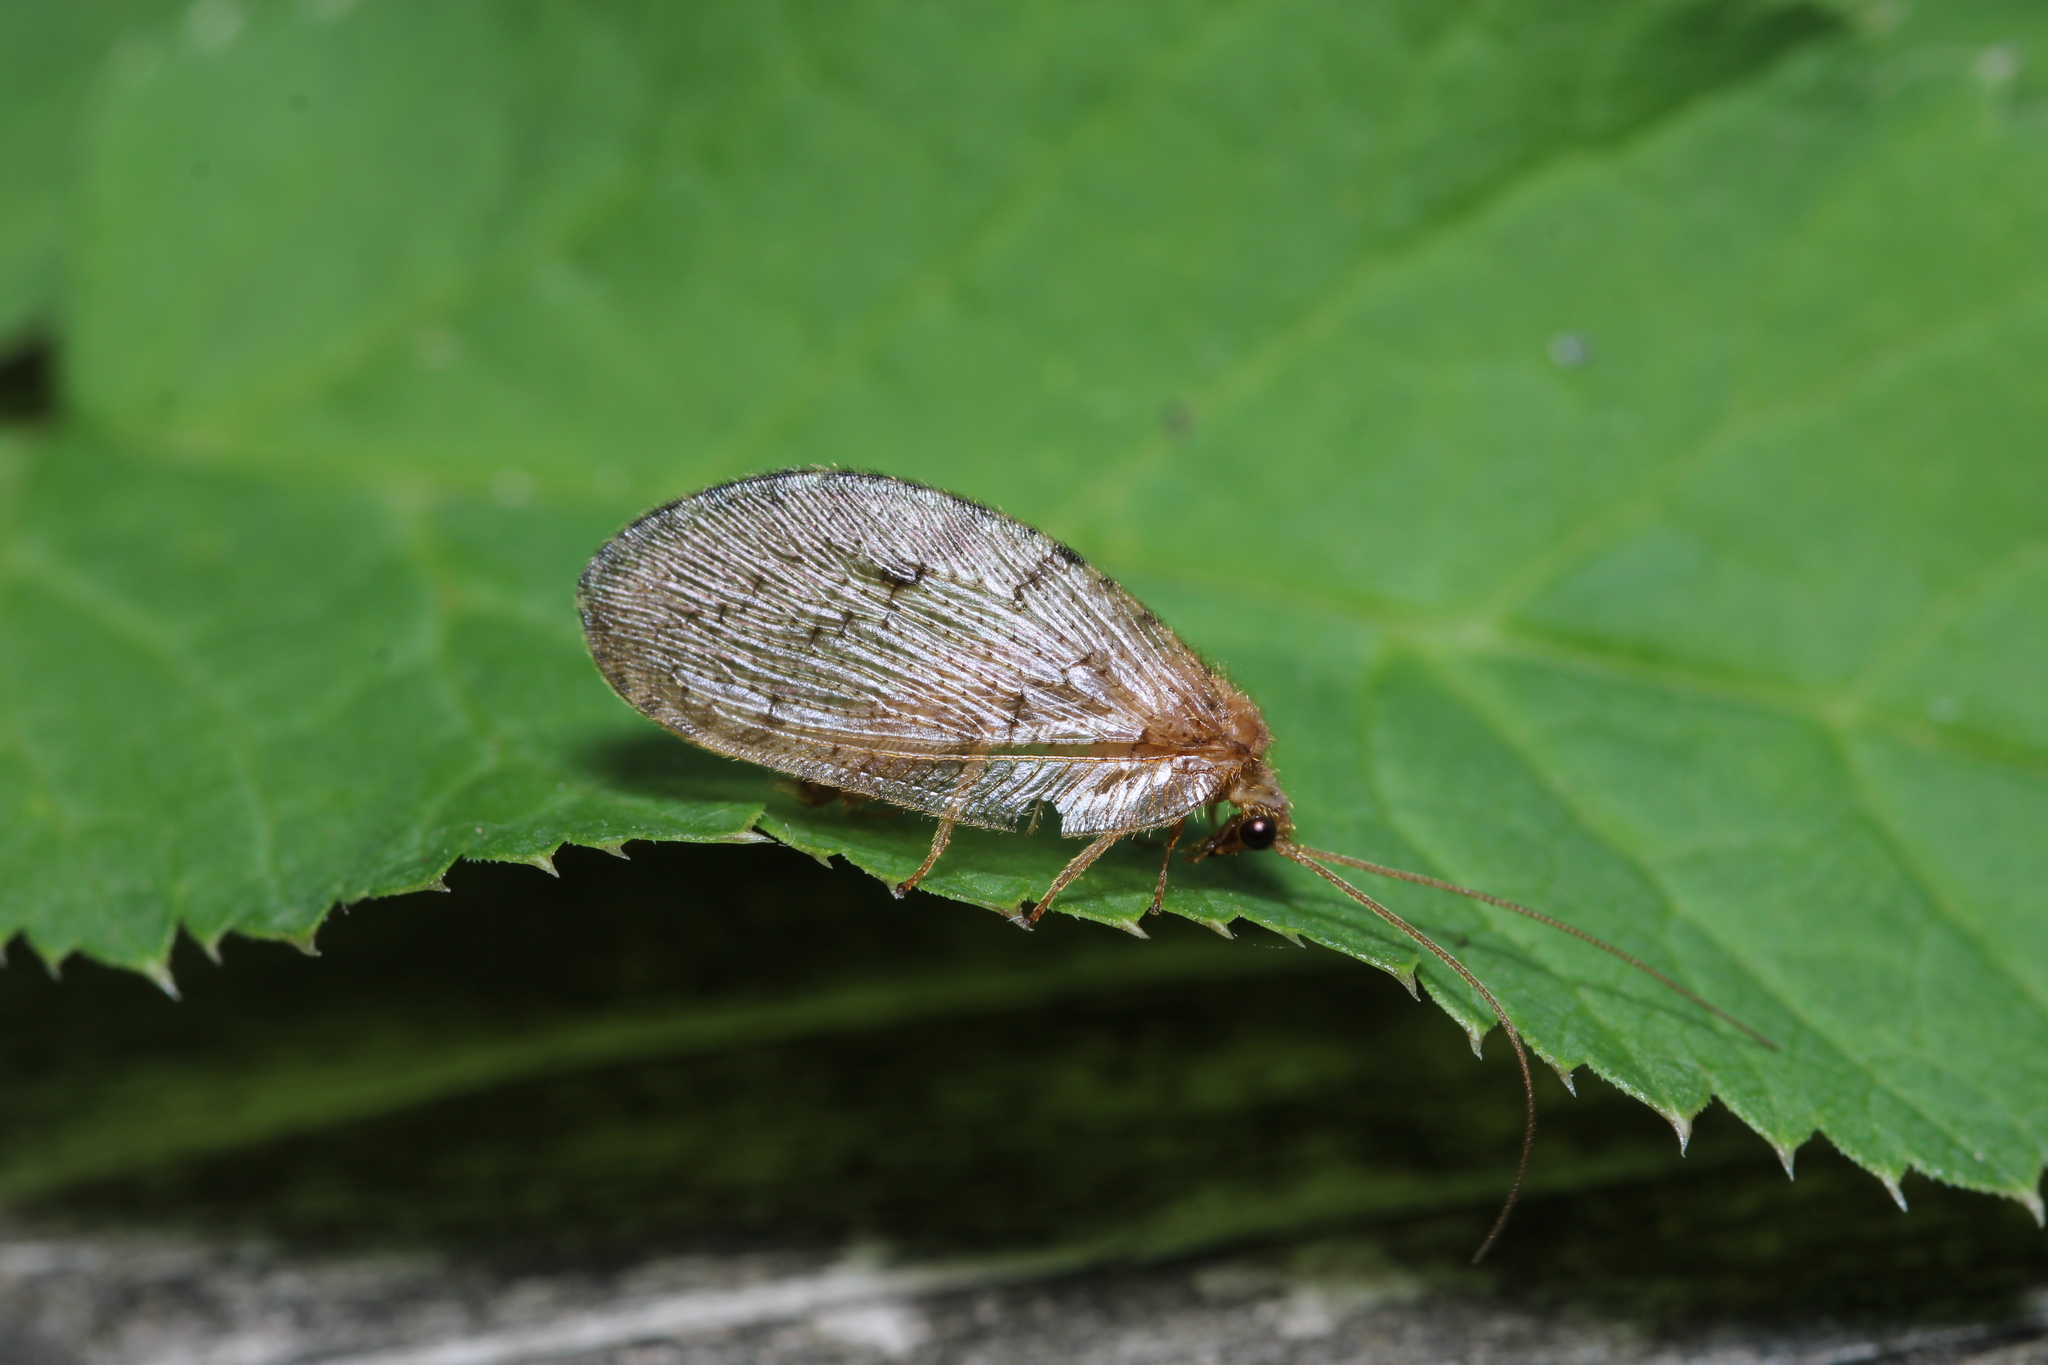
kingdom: Animalia
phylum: Arthropoda
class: Insecta
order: Neuroptera
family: Hemerobiidae
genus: Wesmaelius
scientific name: Wesmaelius concinnus
